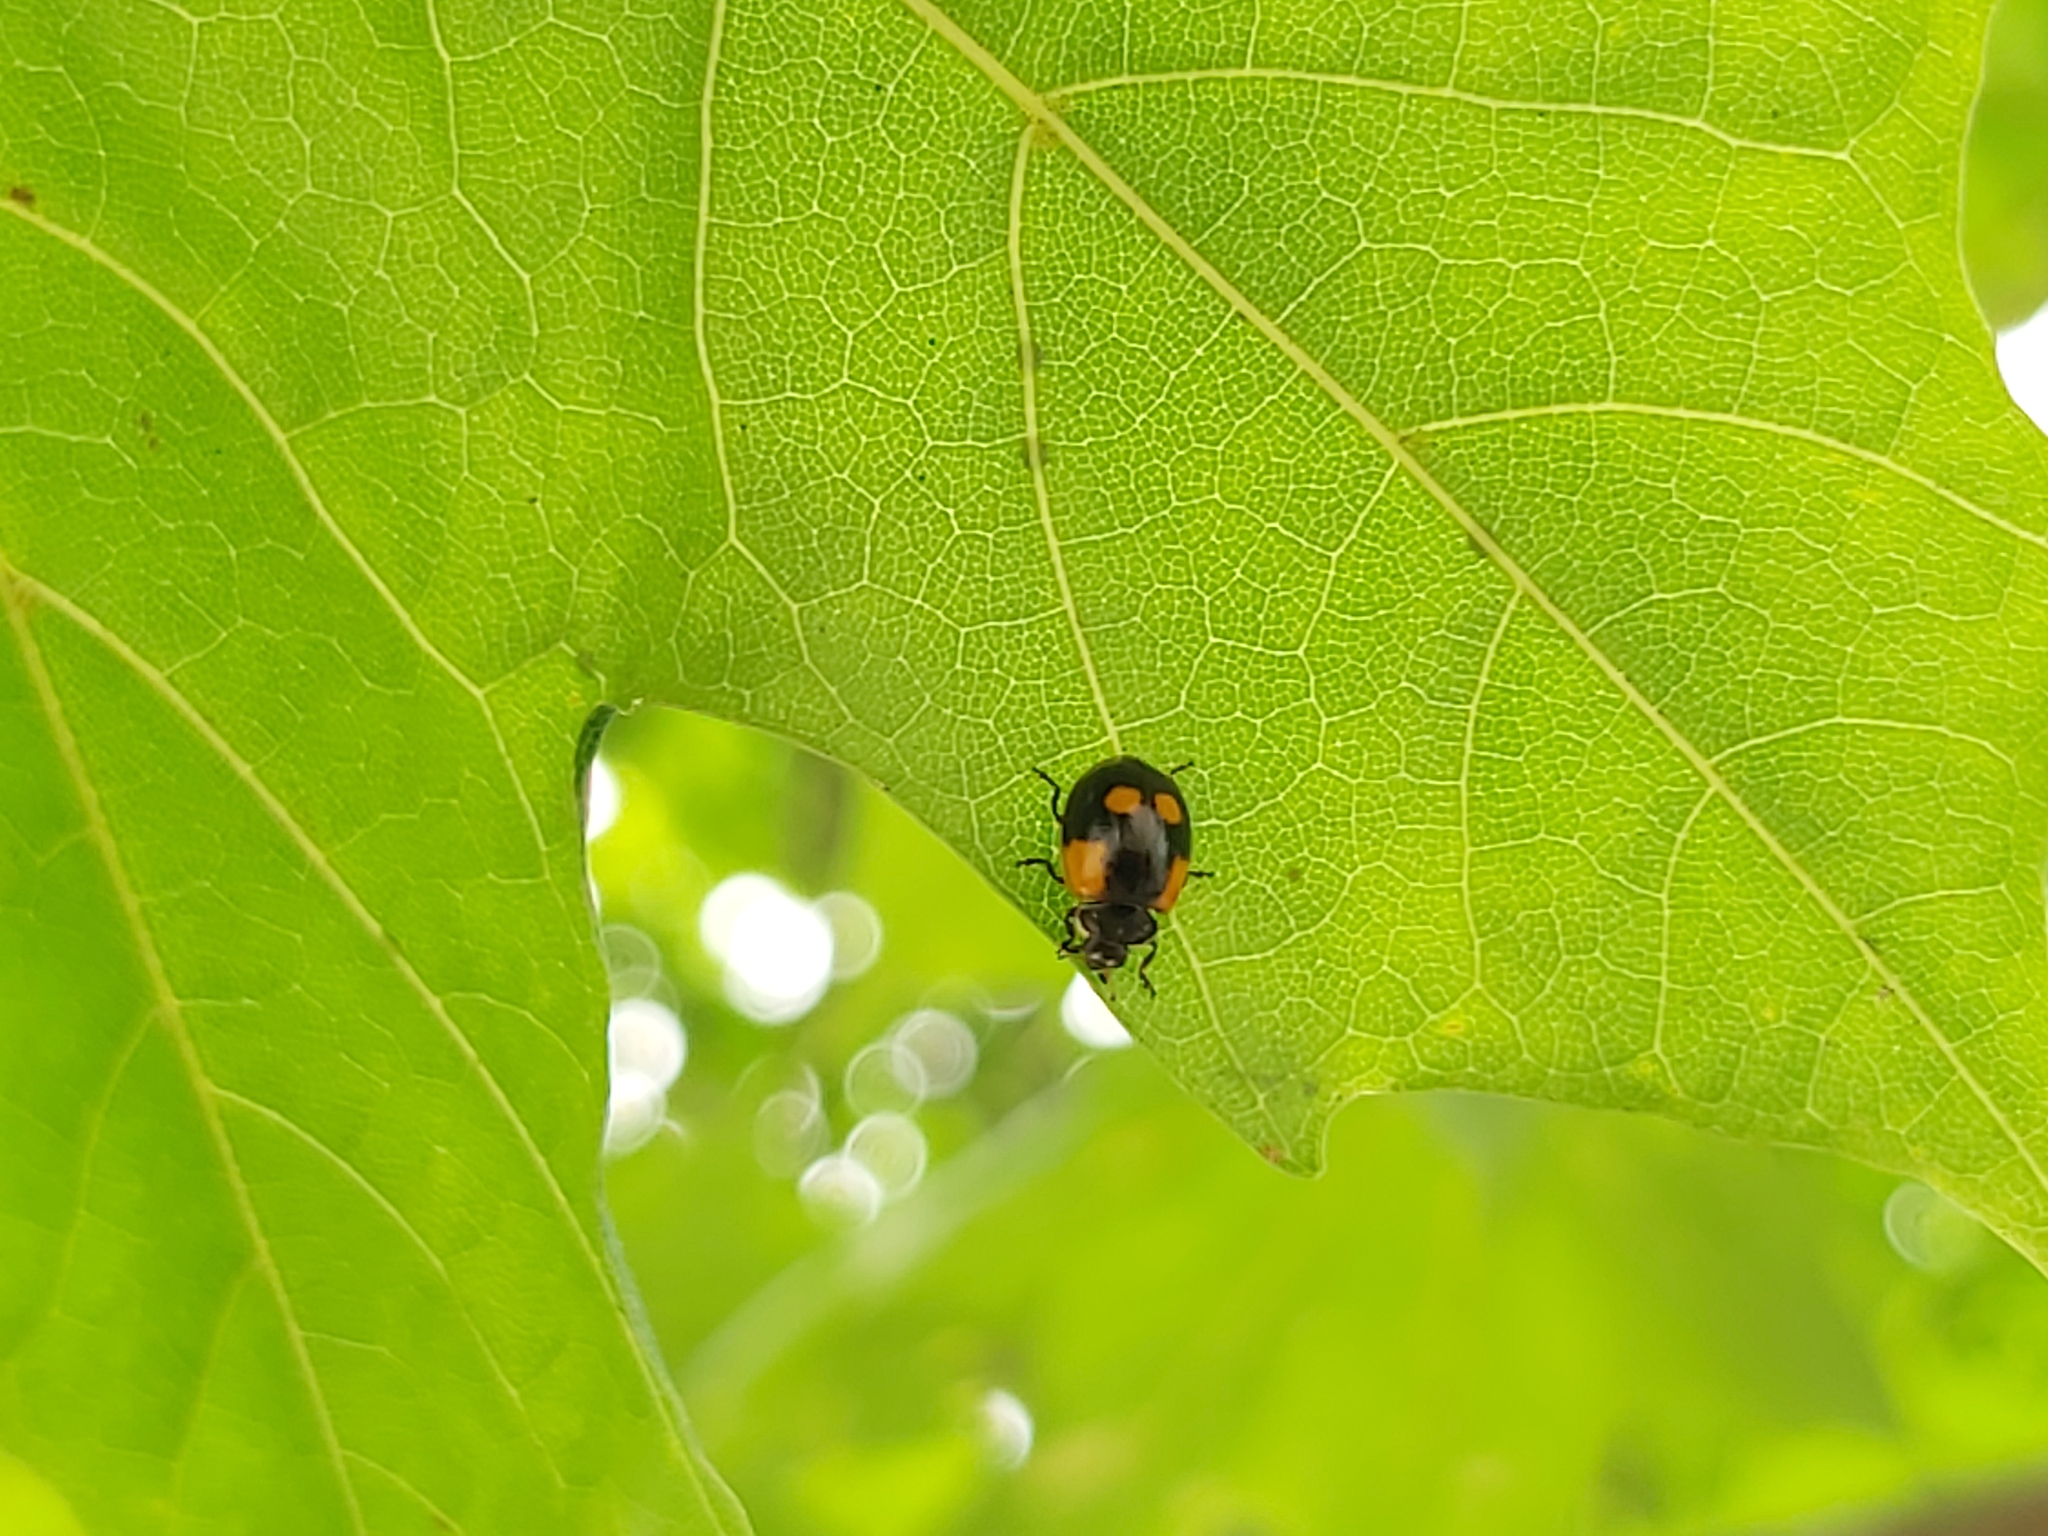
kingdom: Animalia
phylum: Arthropoda
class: Insecta
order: Coleoptera
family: Coccinellidae
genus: Adalia
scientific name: Adalia bipunctata
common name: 2-spot ladybird
